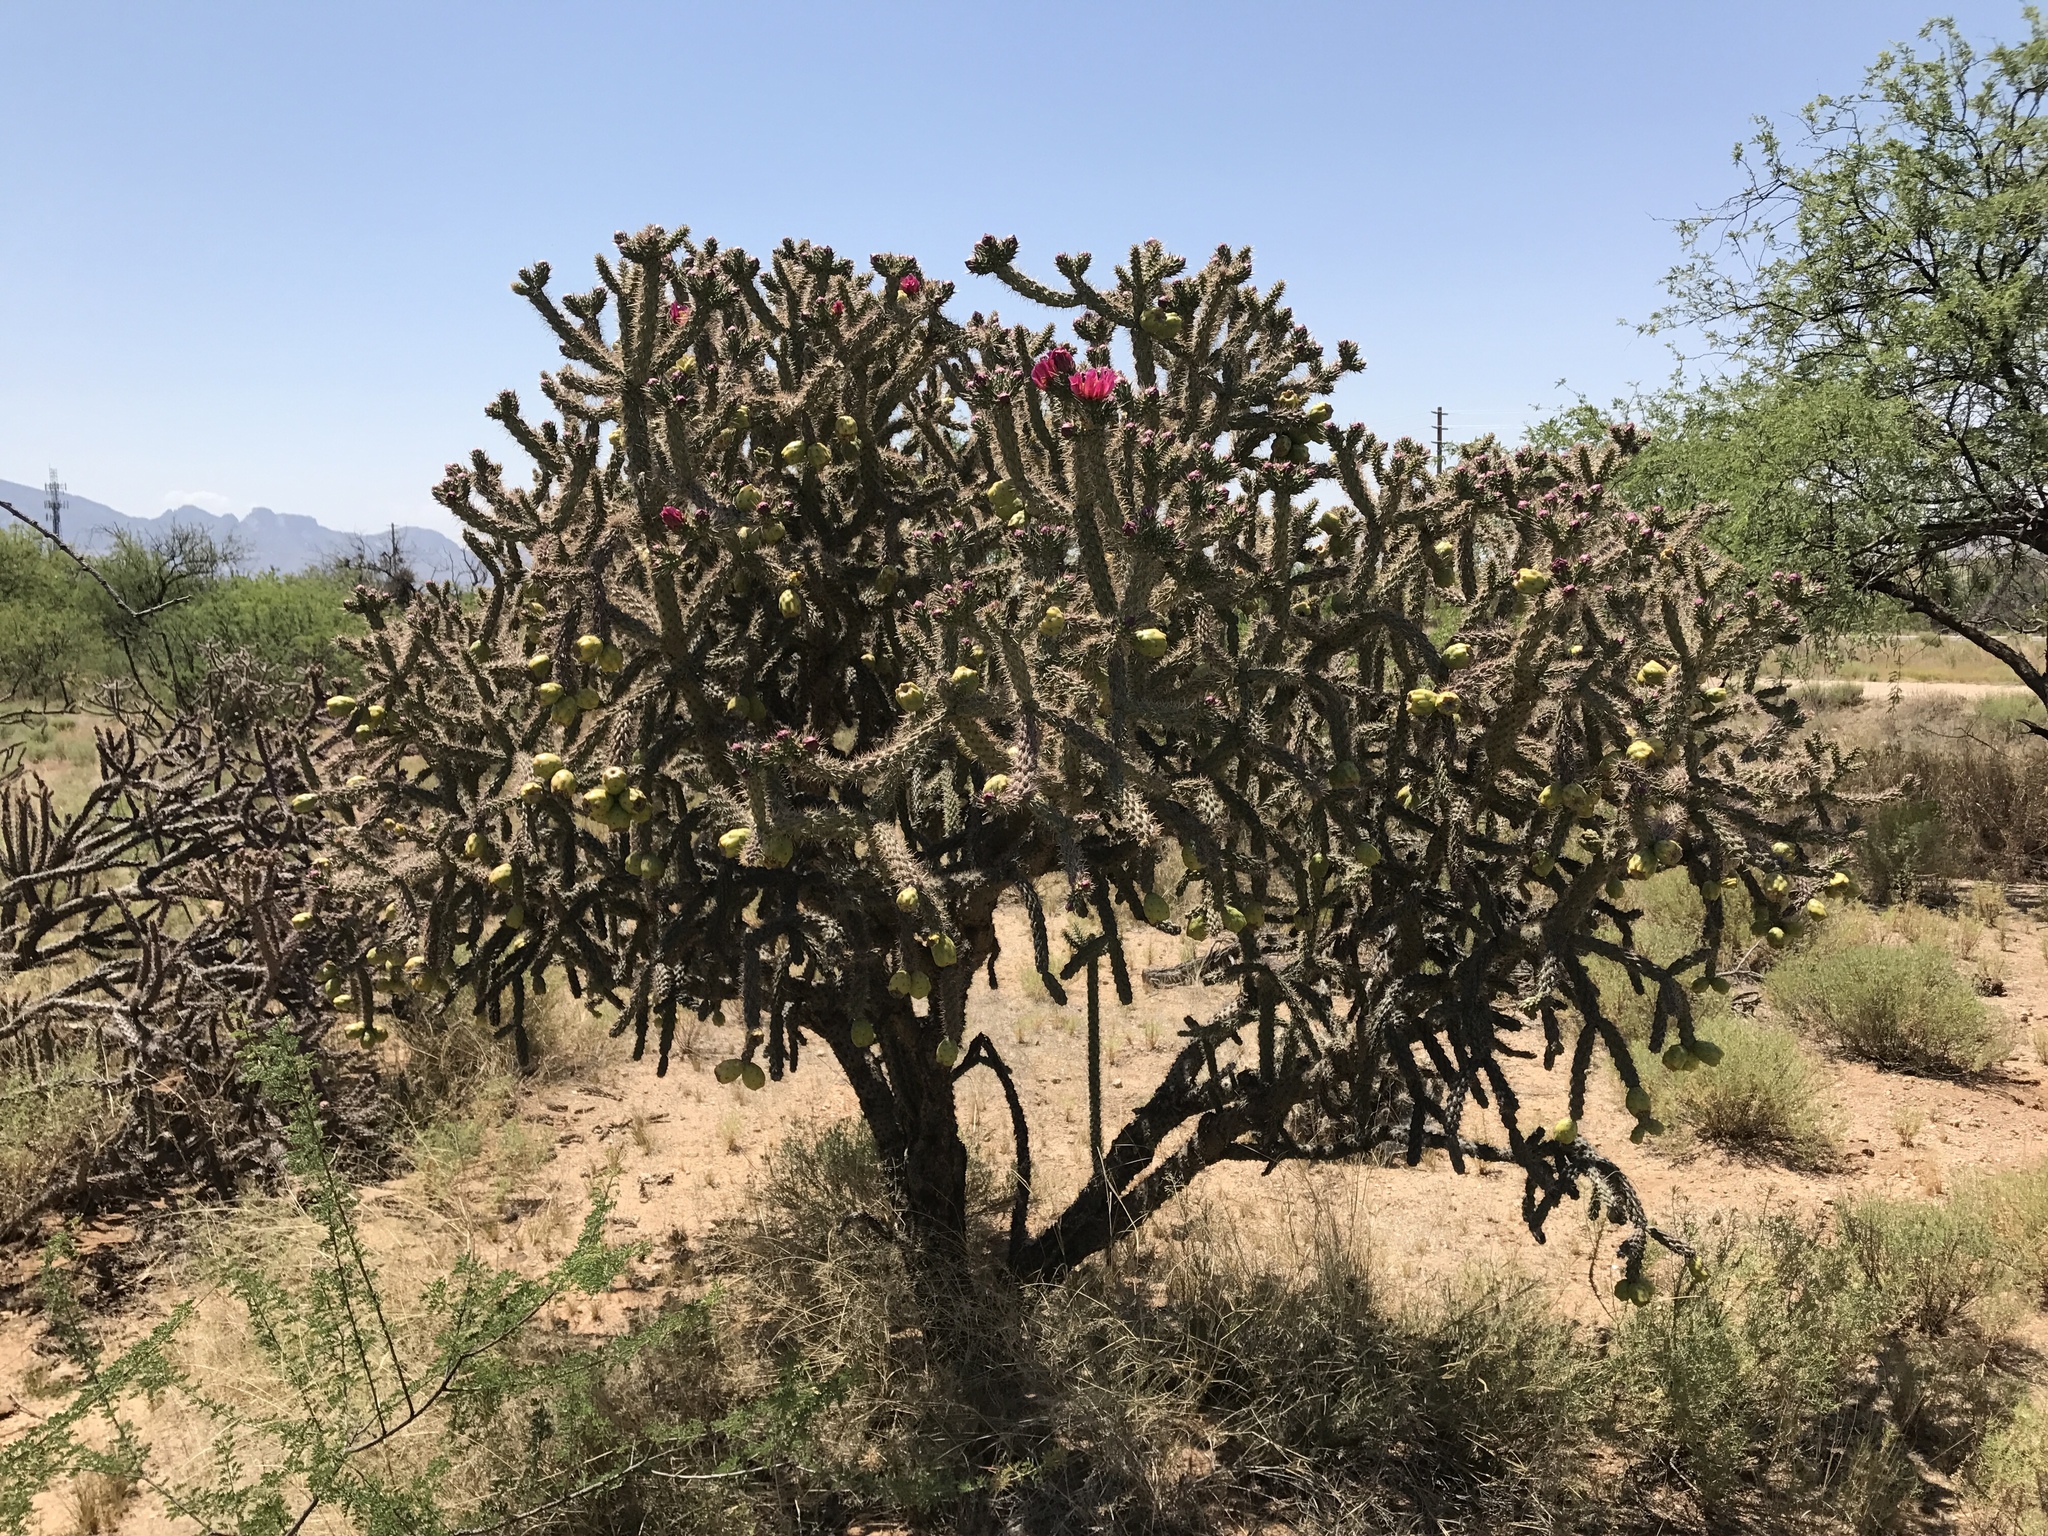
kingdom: Plantae
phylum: Tracheophyta
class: Magnoliopsida
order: Caryophyllales
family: Cactaceae
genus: Cylindropuntia
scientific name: Cylindropuntia thurberi
